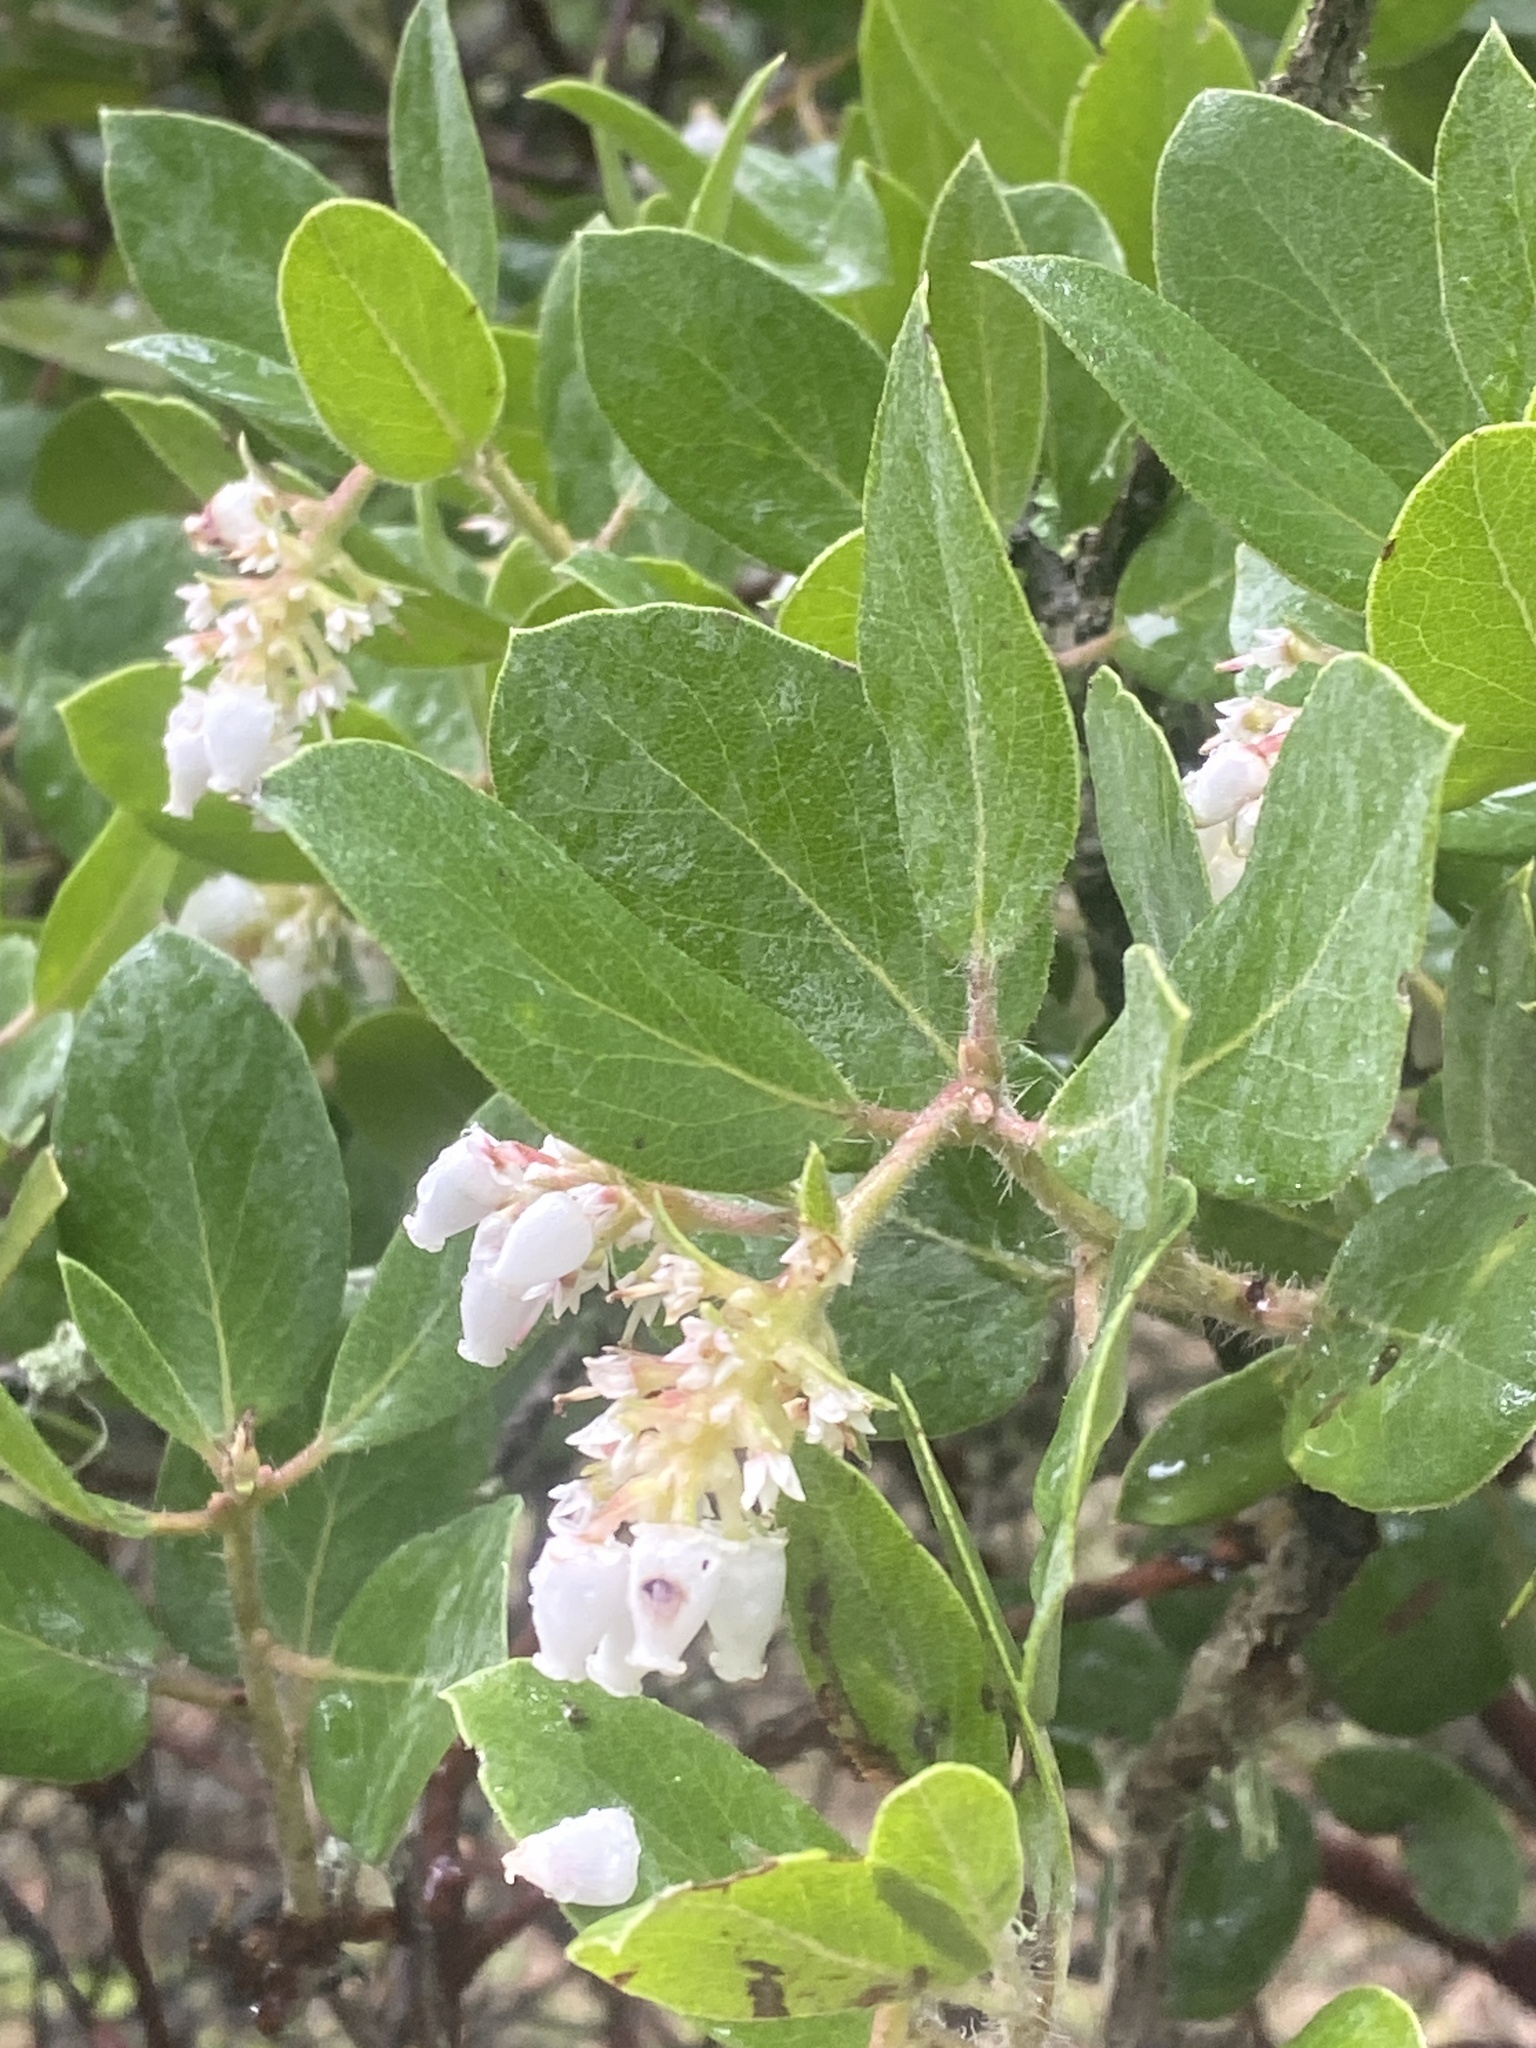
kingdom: Plantae
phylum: Tracheophyta
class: Magnoliopsida
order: Ericales
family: Ericaceae
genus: Arctostaphylos
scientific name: Arctostaphylos crustacea
